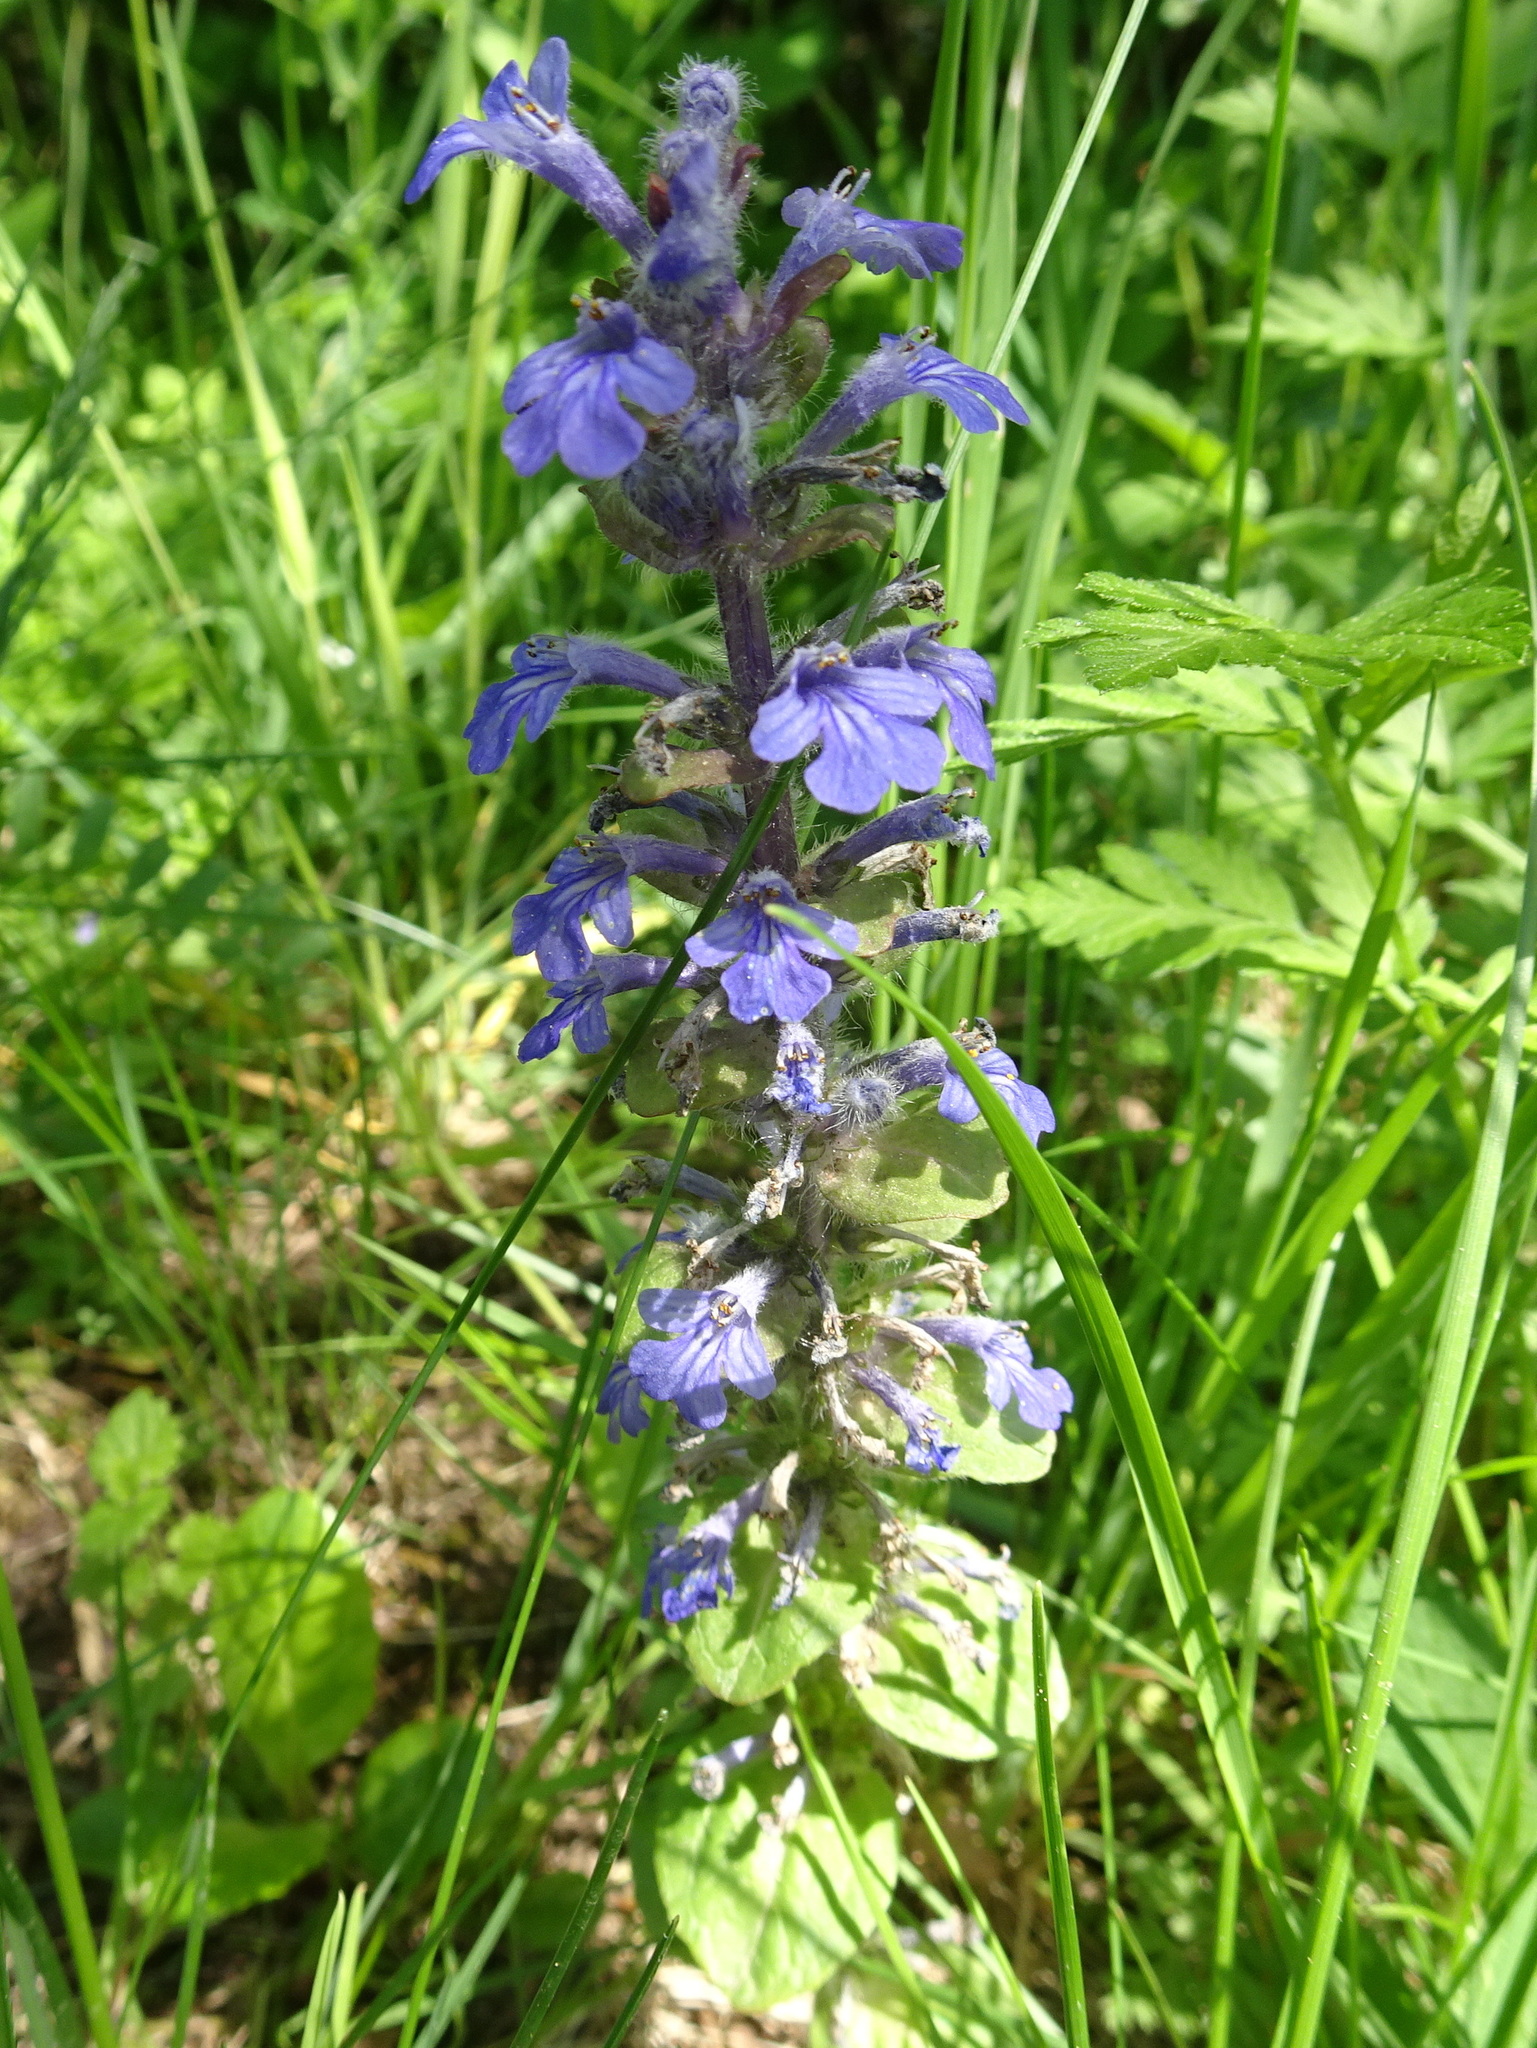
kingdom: Plantae
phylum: Tracheophyta
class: Magnoliopsida
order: Lamiales
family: Lamiaceae
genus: Ajuga
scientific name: Ajuga reptans
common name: Bugle
